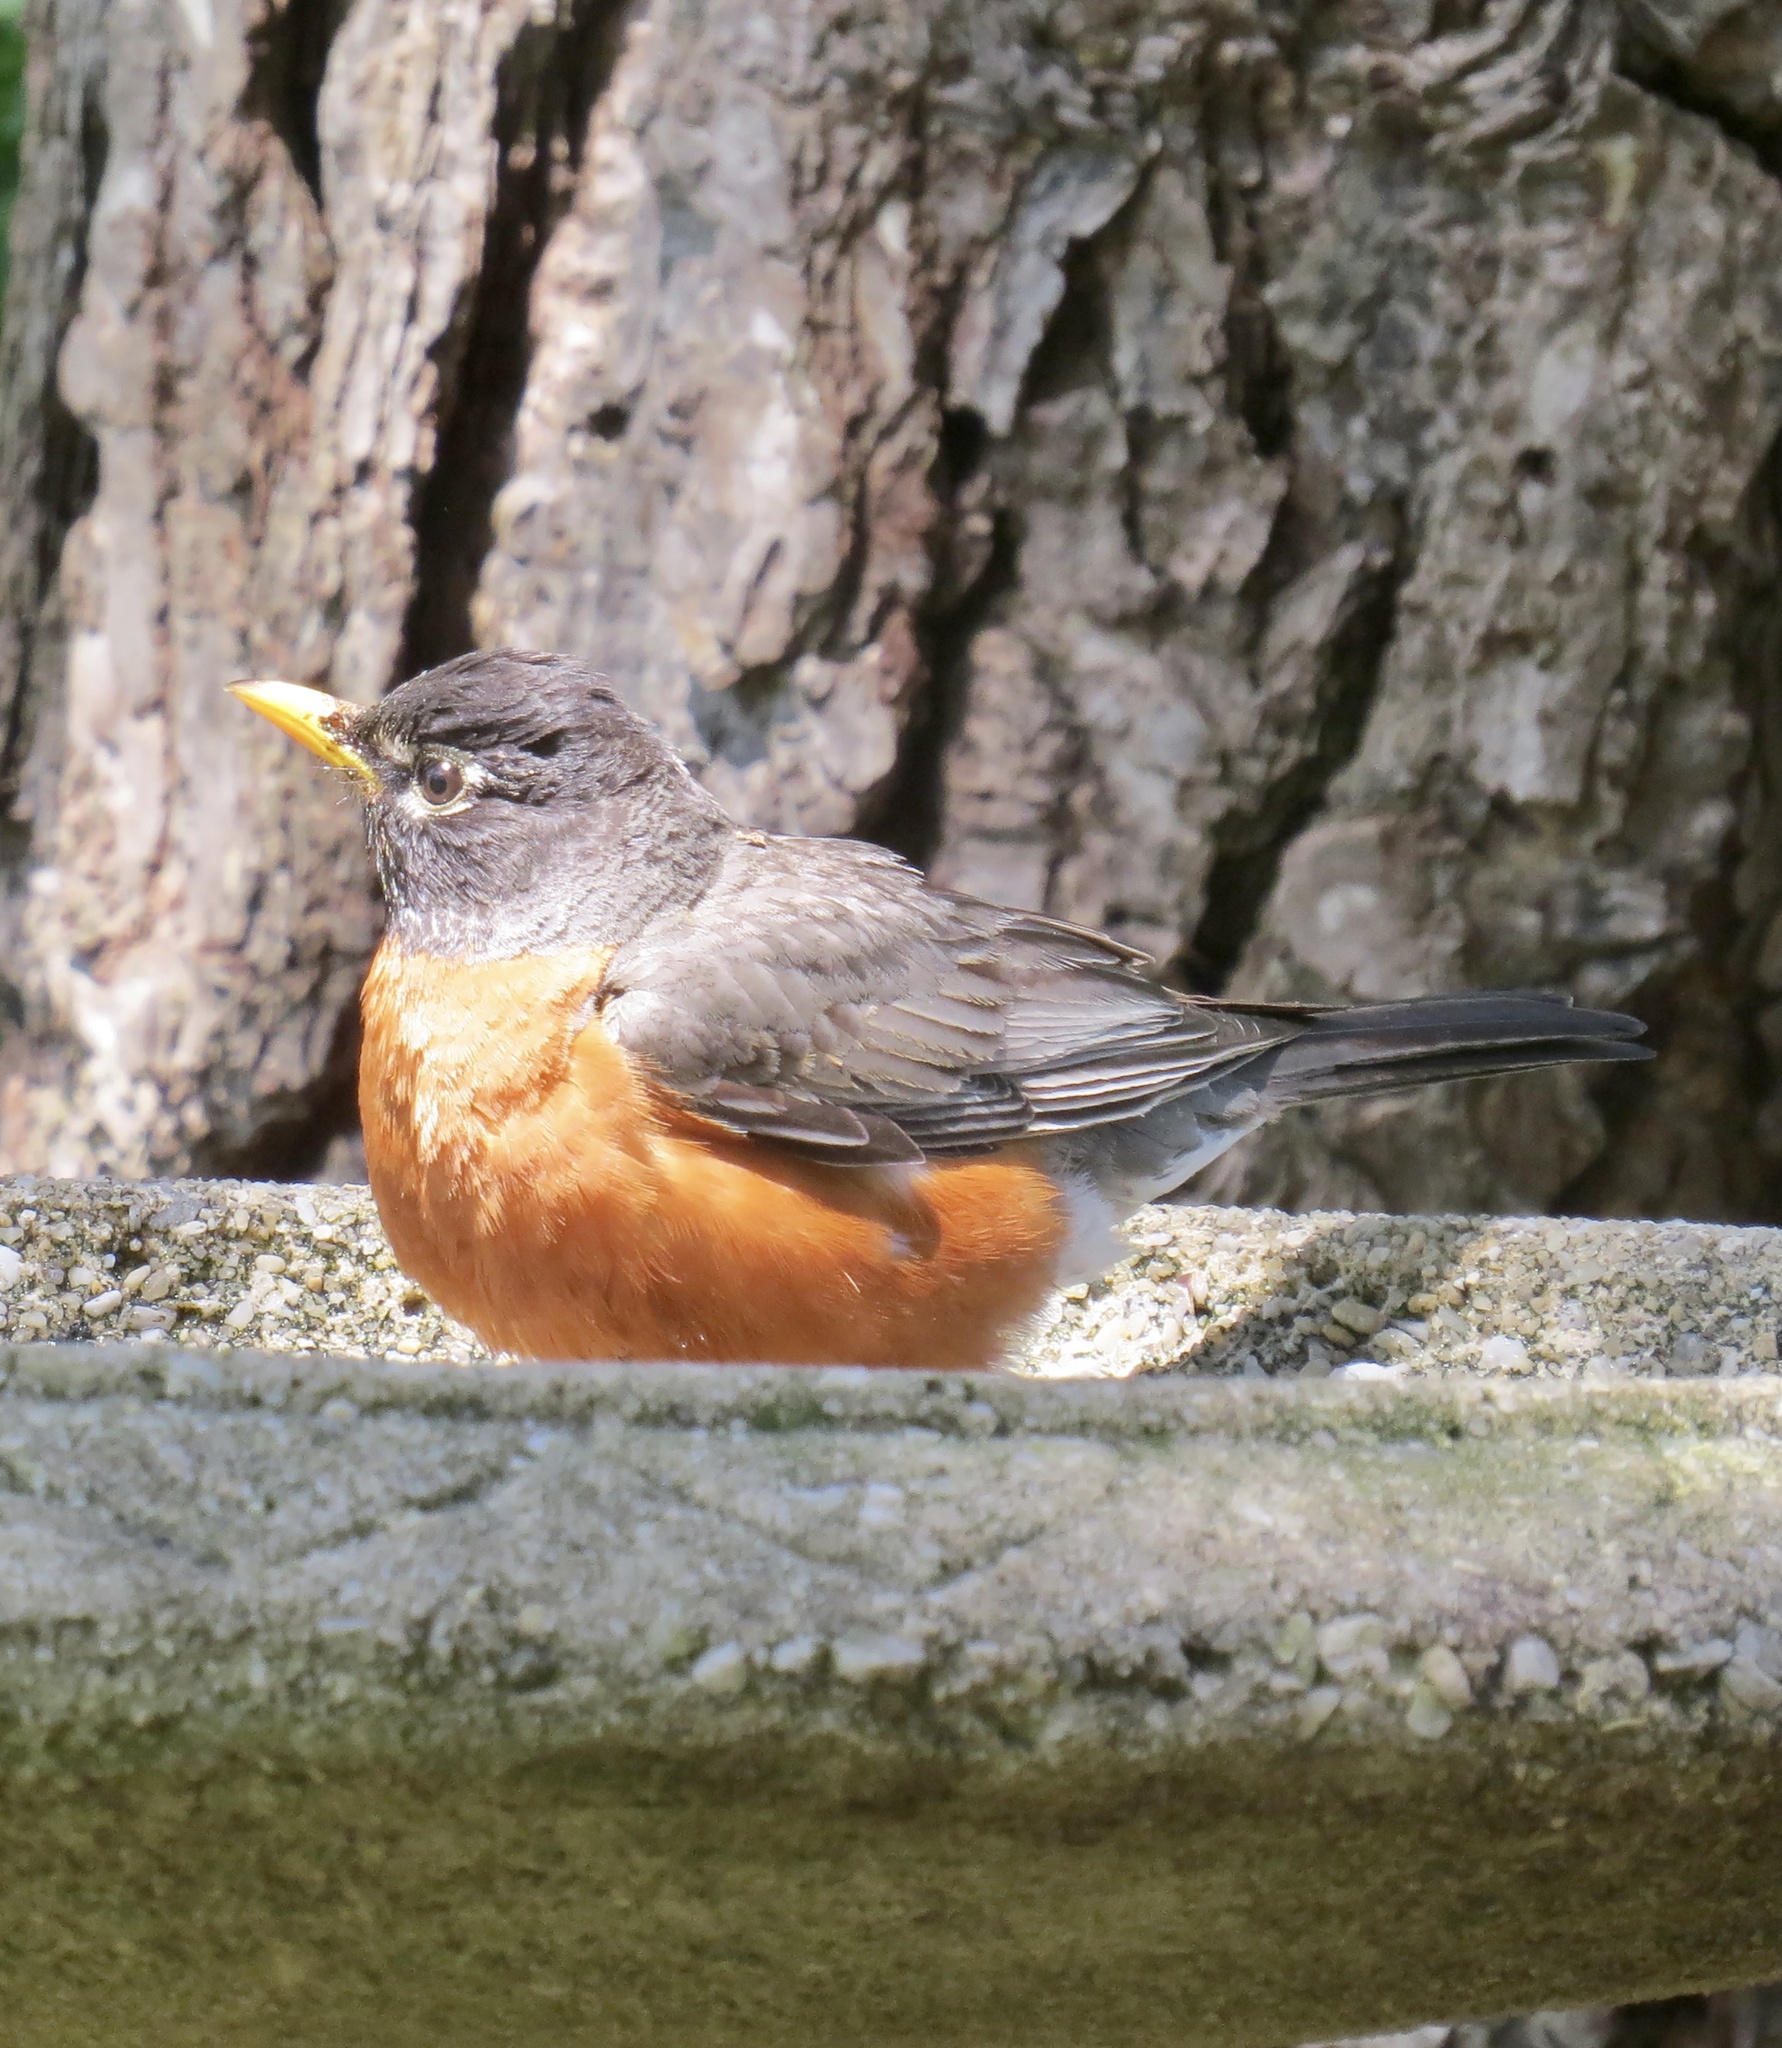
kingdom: Animalia
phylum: Chordata
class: Aves
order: Passeriformes
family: Turdidae
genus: Turdus
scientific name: Turdus migratorius
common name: American robin
